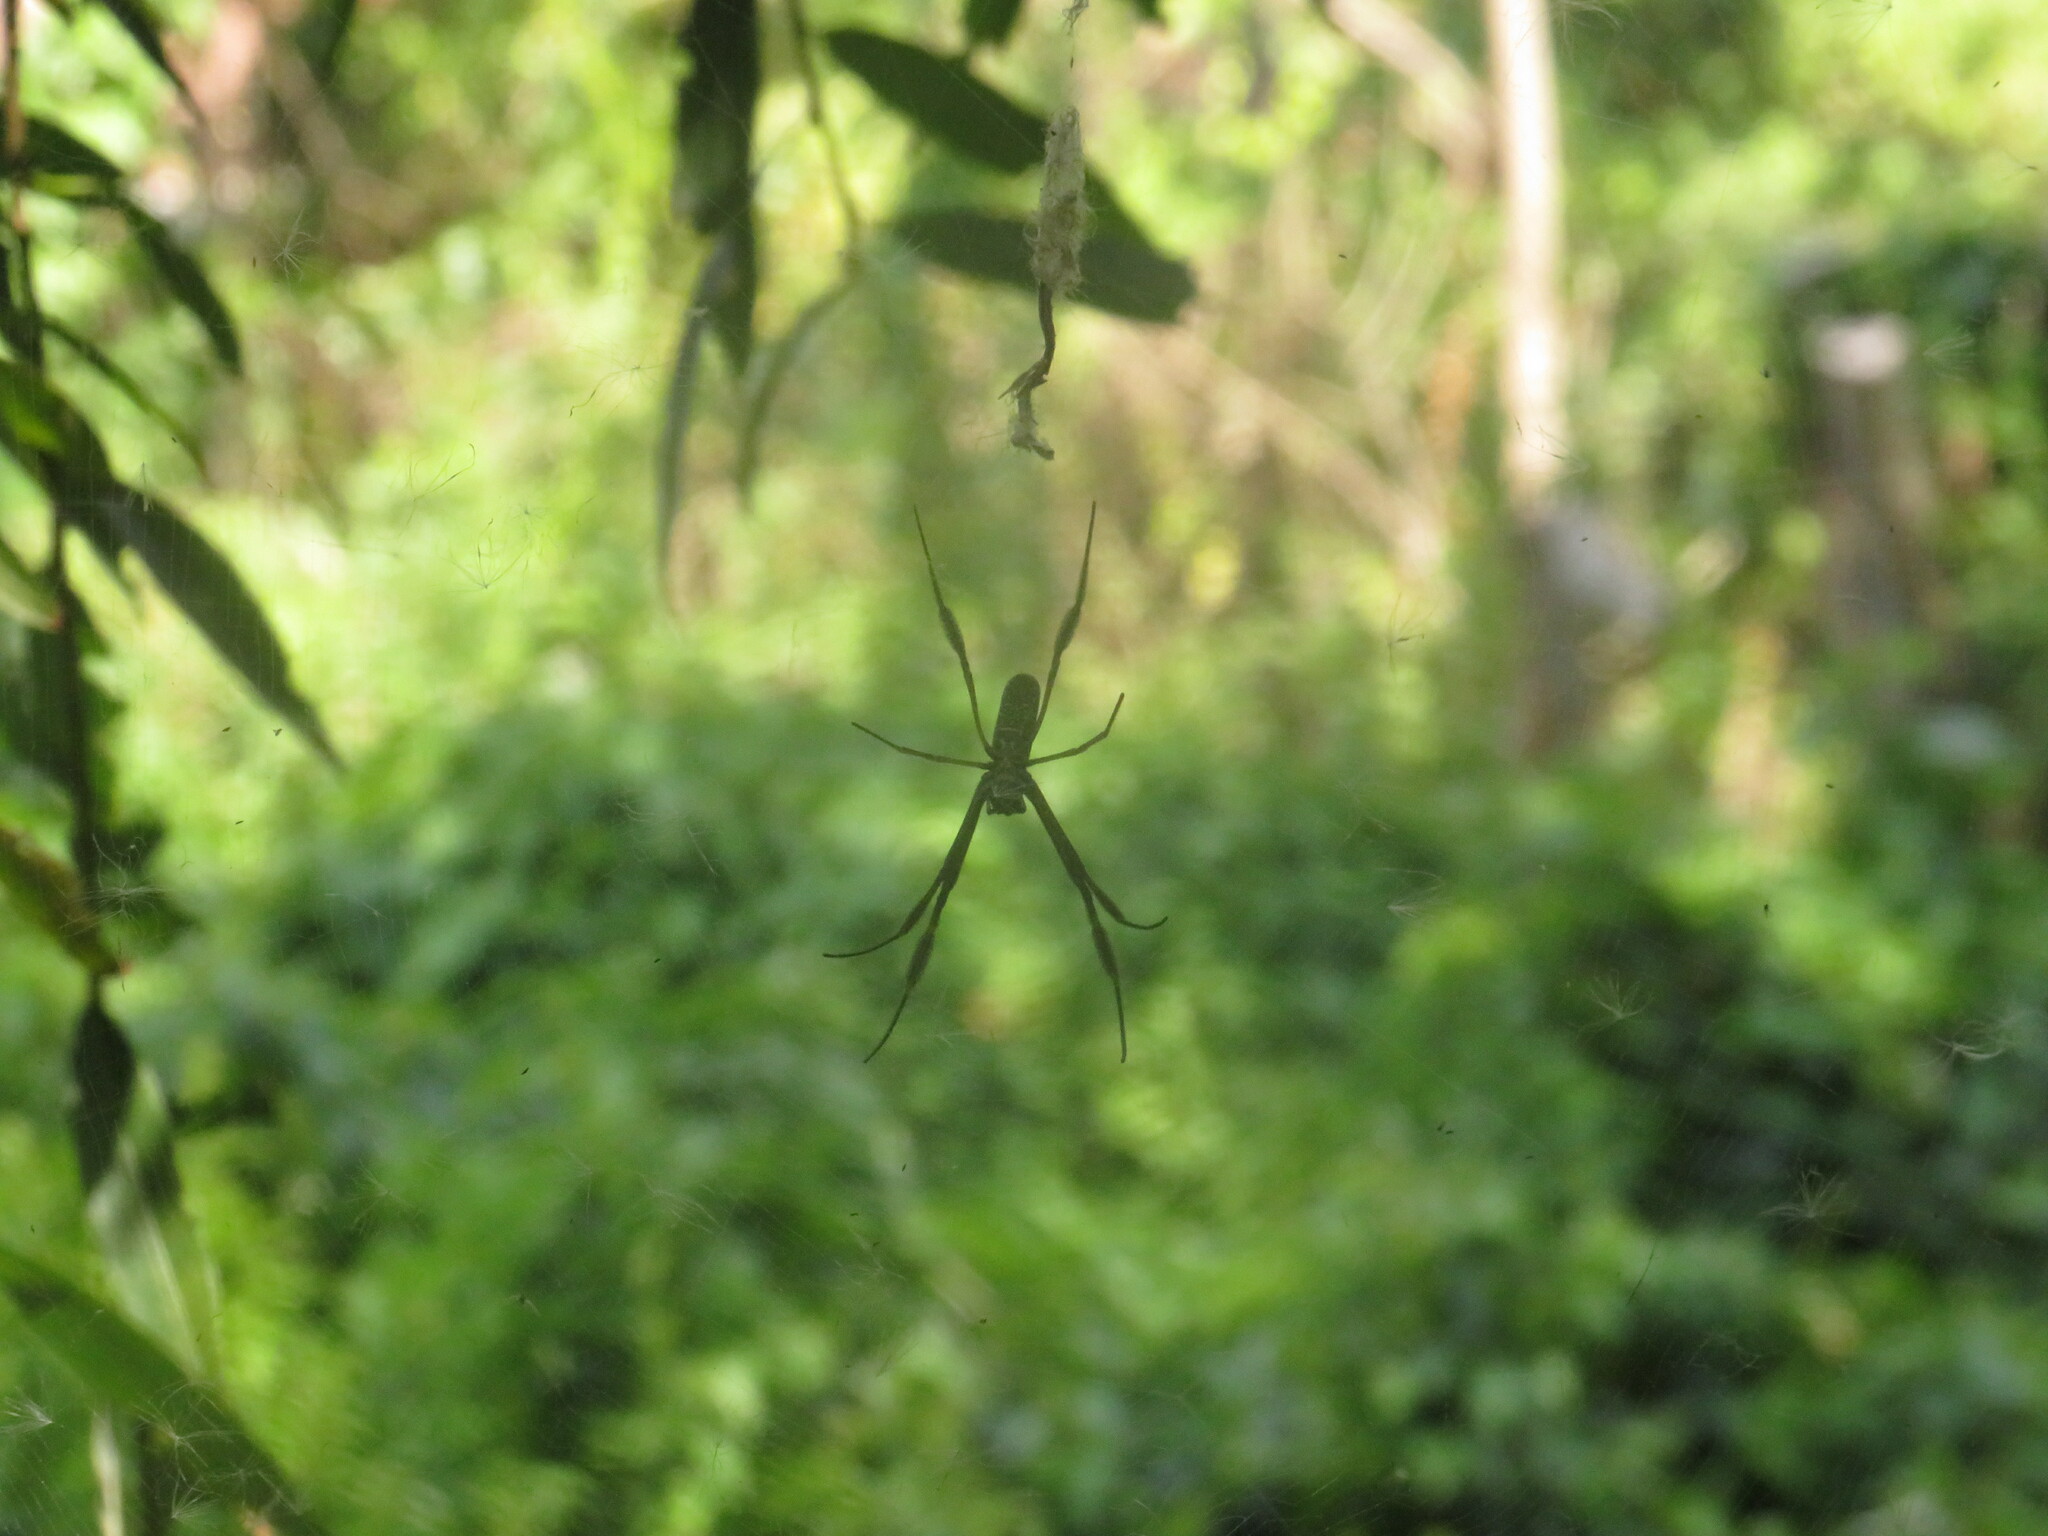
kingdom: Animalia
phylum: Arthropoda
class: Arachnida
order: Araneae
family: Araneidae
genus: Trichonephila
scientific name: Trichonephila clavipes
